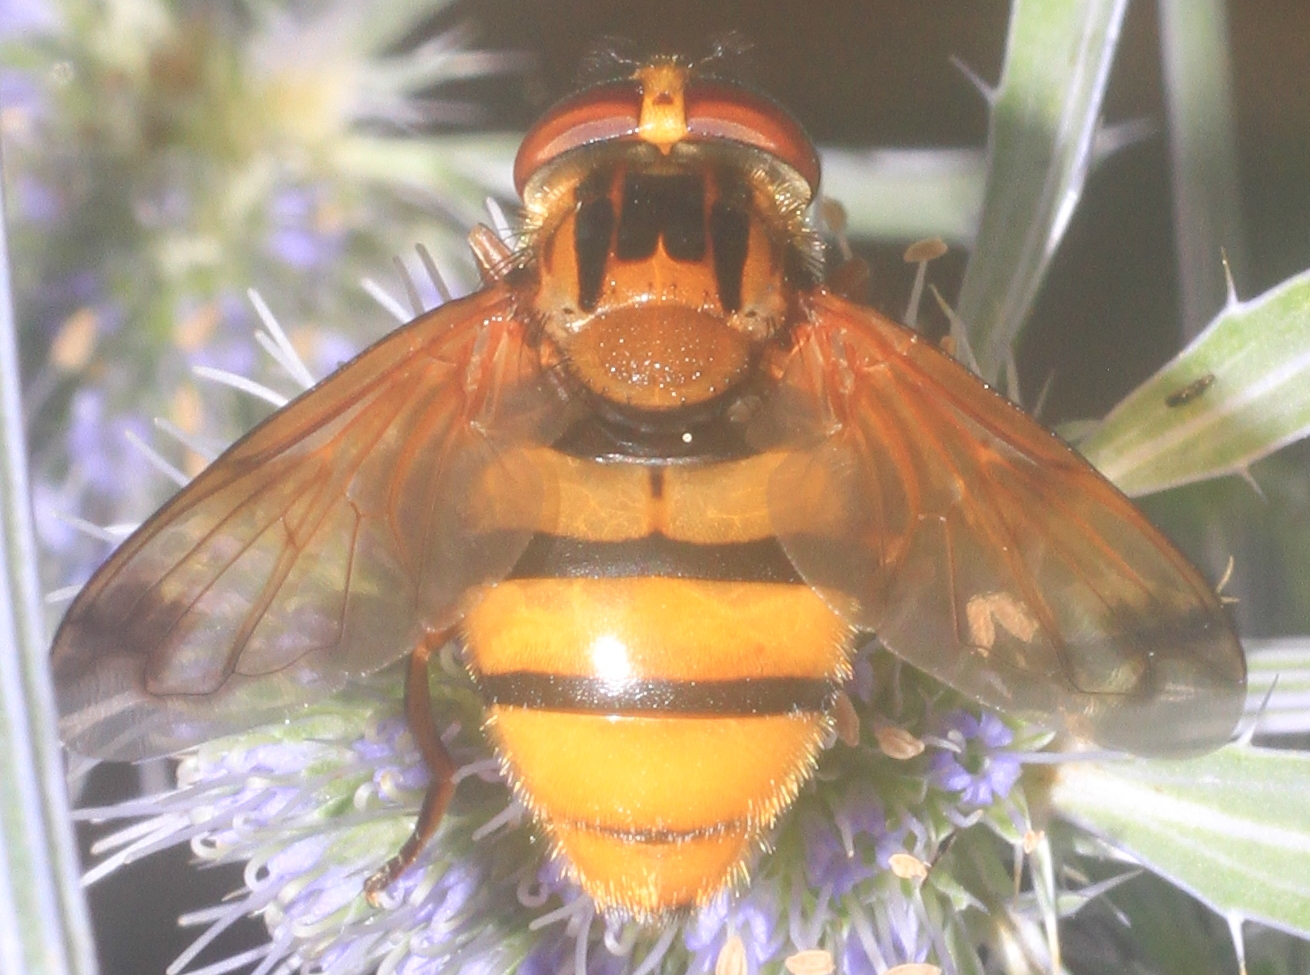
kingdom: Animalia
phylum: Arthropoda
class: Insecta
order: Diptera
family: Syrphidae
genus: Volucella
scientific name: Volucella inanis
